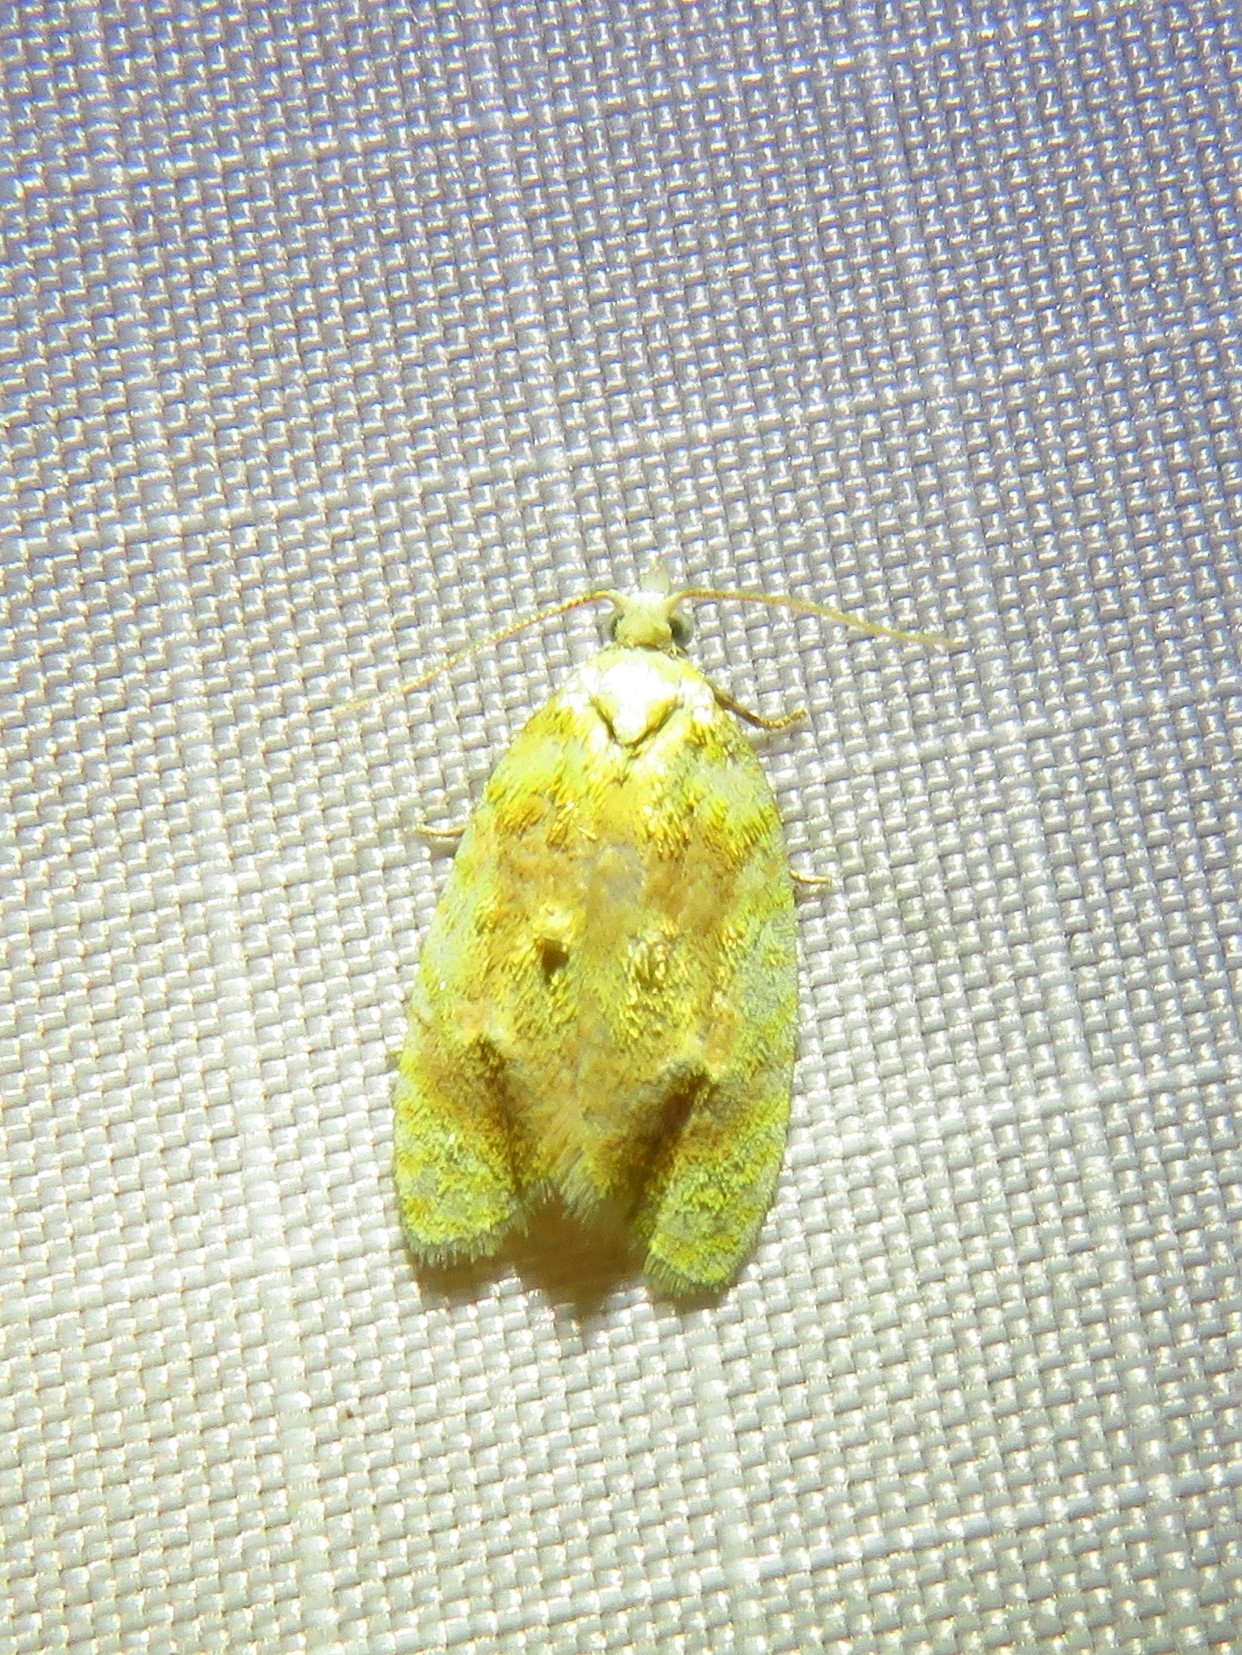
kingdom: Animalia
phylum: Arthropoda
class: Insecta
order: Lepidoptera
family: Tortricidae
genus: Acleris
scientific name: Acleris semipurpurana
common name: Oak leaftier moth
